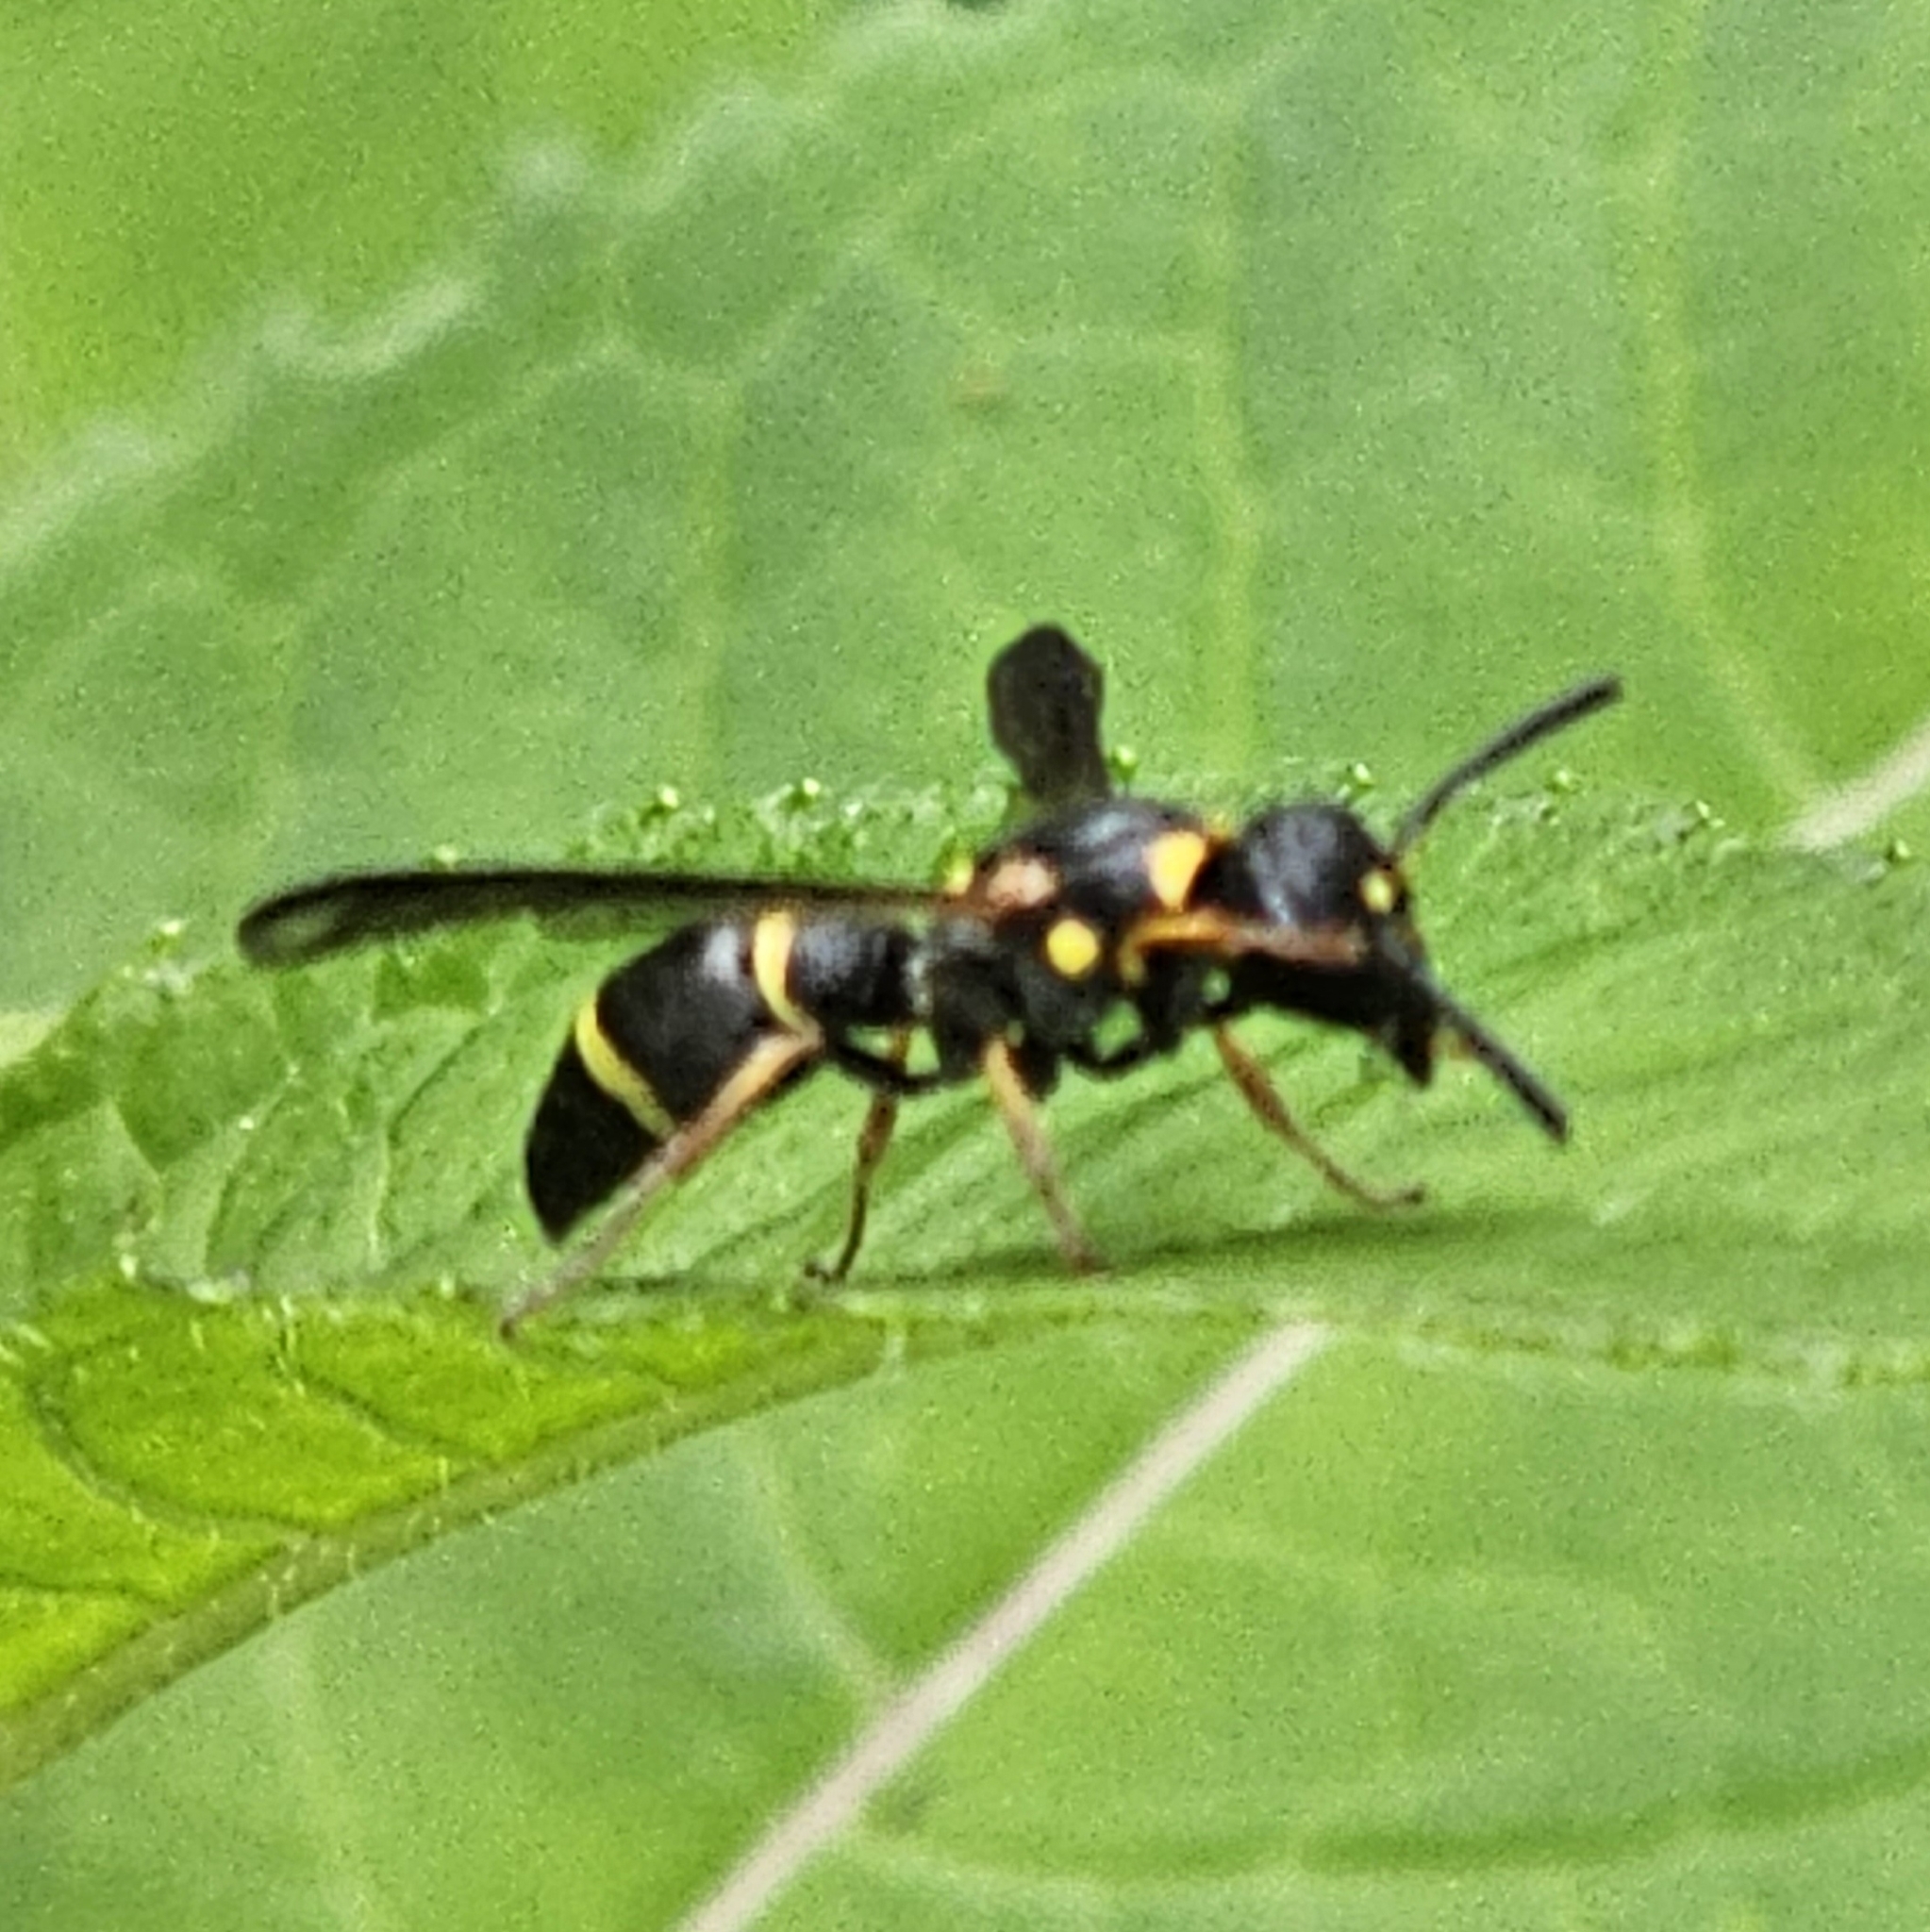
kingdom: Animalia
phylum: Arthropoda
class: Insecta
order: Hymenoptera
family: Eumenidae
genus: Parancistrocerus
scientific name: Parancistrocerus perennis
